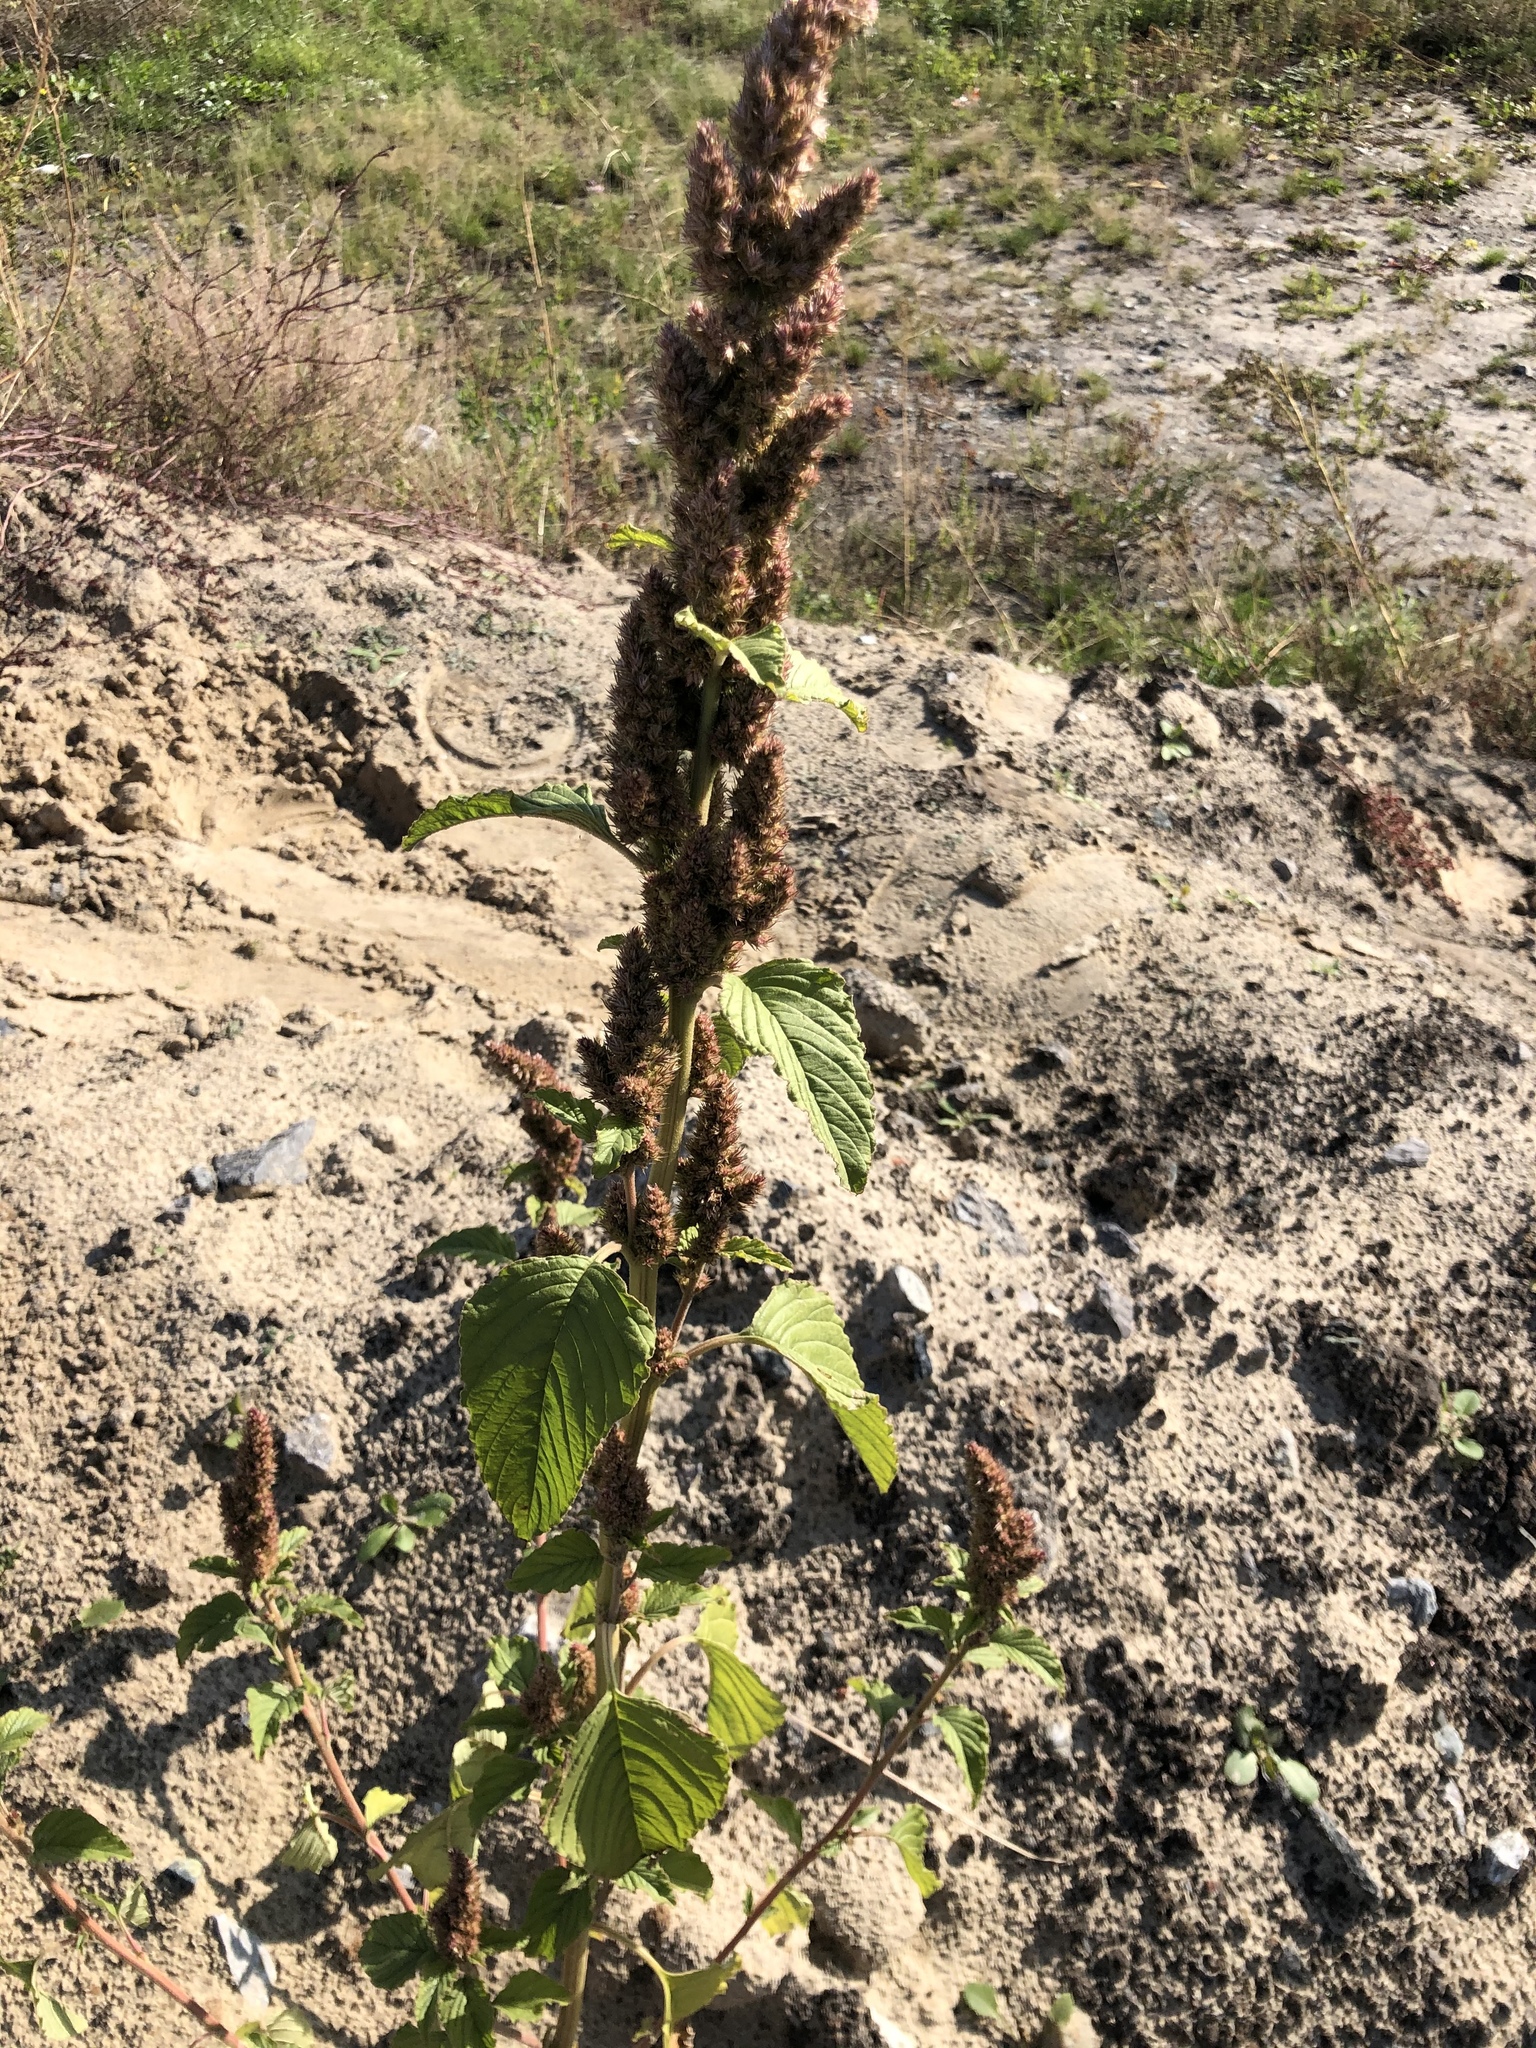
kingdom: Plantae
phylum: Tracheophyta
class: Magnoliopsida
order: Caryophyllales
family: Amaranthaceae
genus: Amaranthus
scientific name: Amaranthus retroflexus
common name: Redroot amaranth
